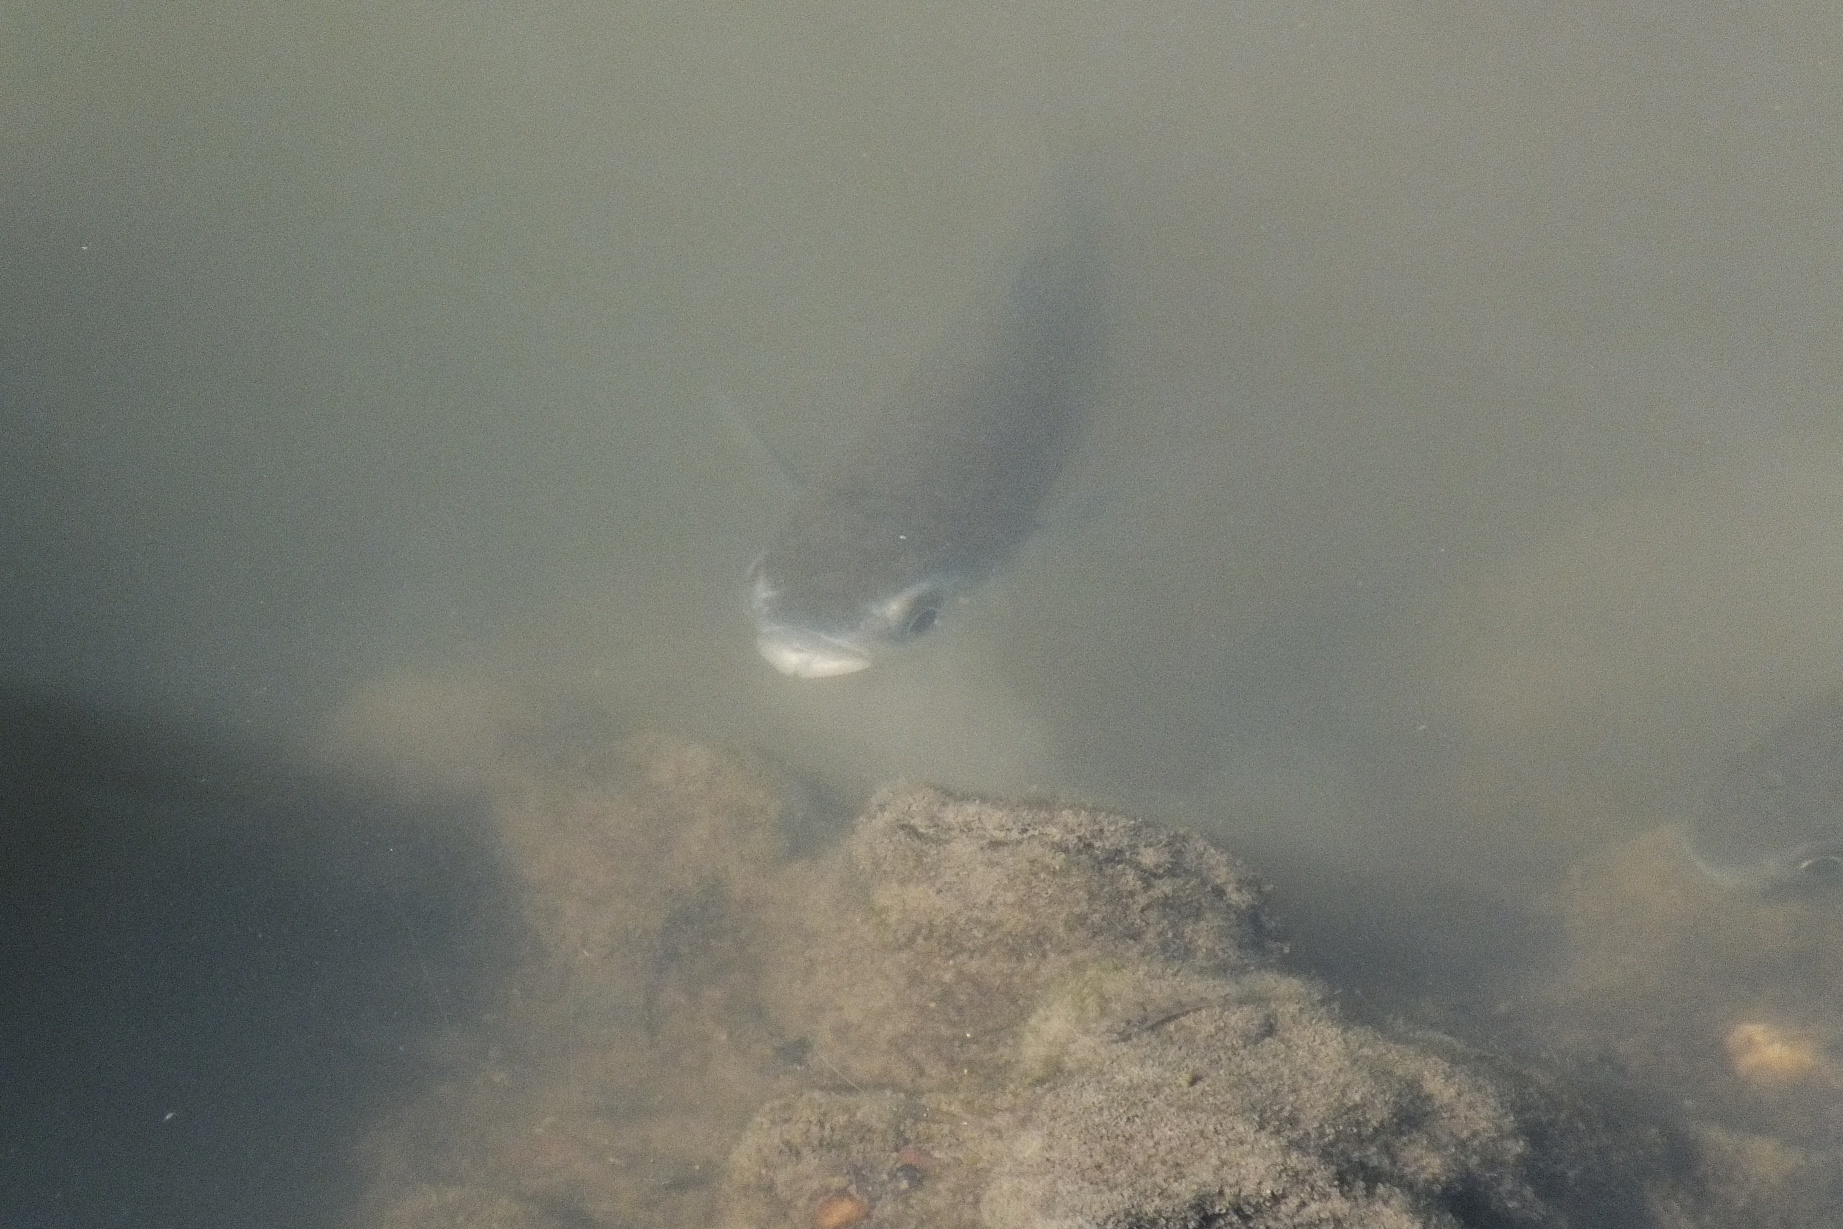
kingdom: Animalia
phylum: Chordata
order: Mugiliformes
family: Mugilidae
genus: Planiliza
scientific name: Planiliza subviridis
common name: Greenback mullet
